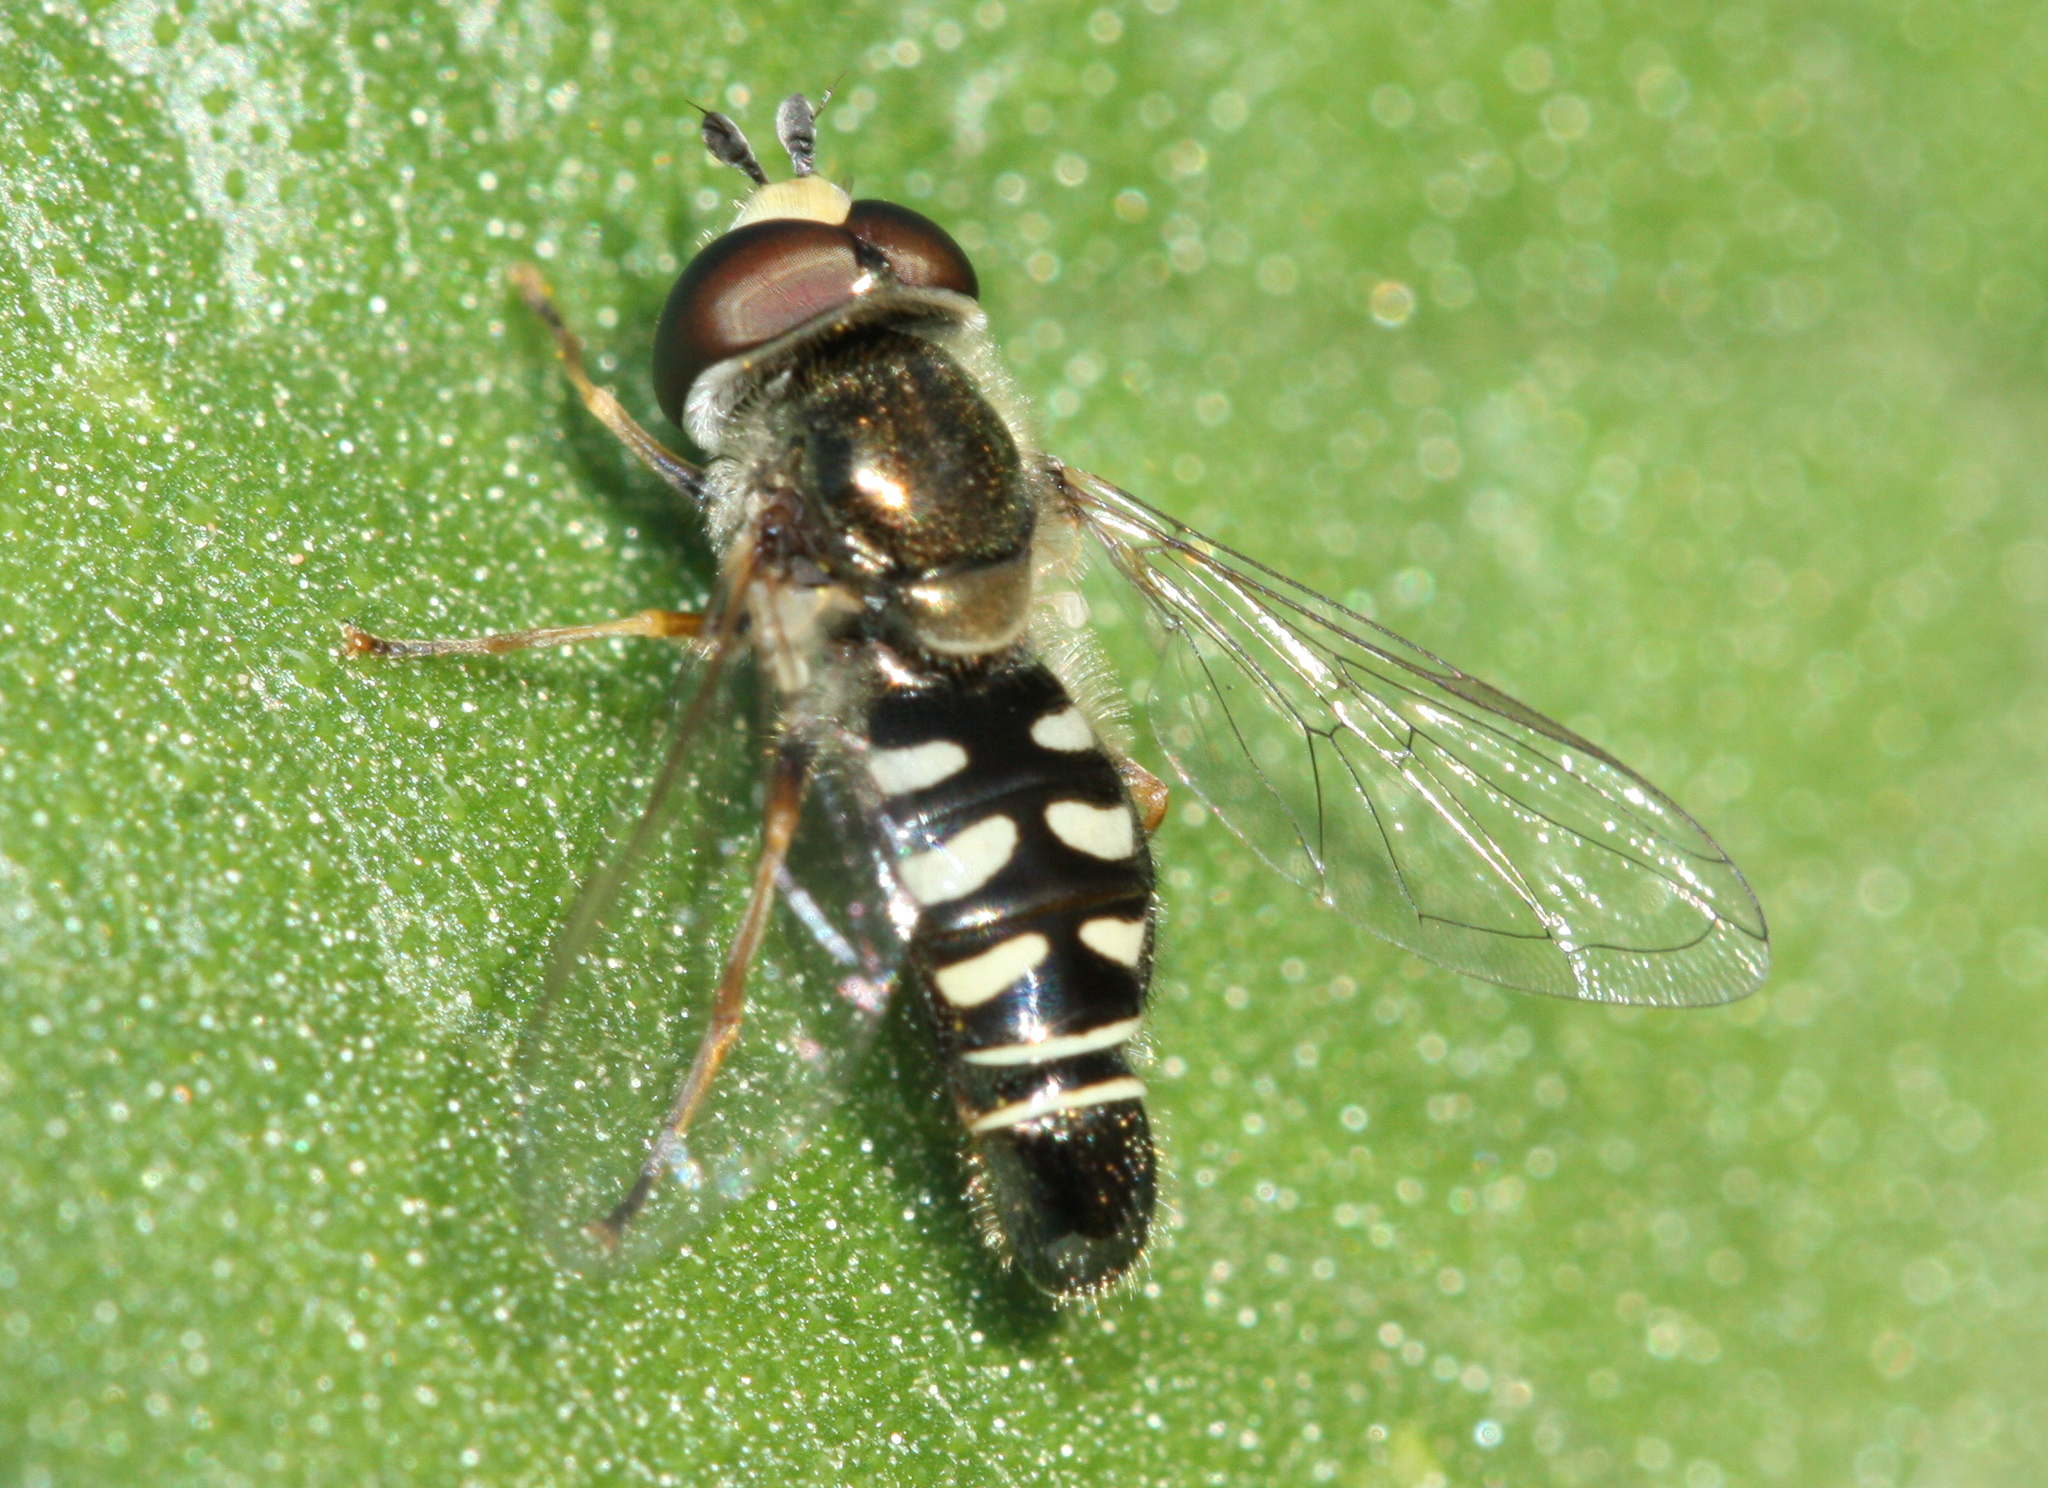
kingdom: Animalia
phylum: Arthropoda
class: Insecta
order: Diptera
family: Syrphidae
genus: Eupeodes
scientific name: Eupeodes volucris
